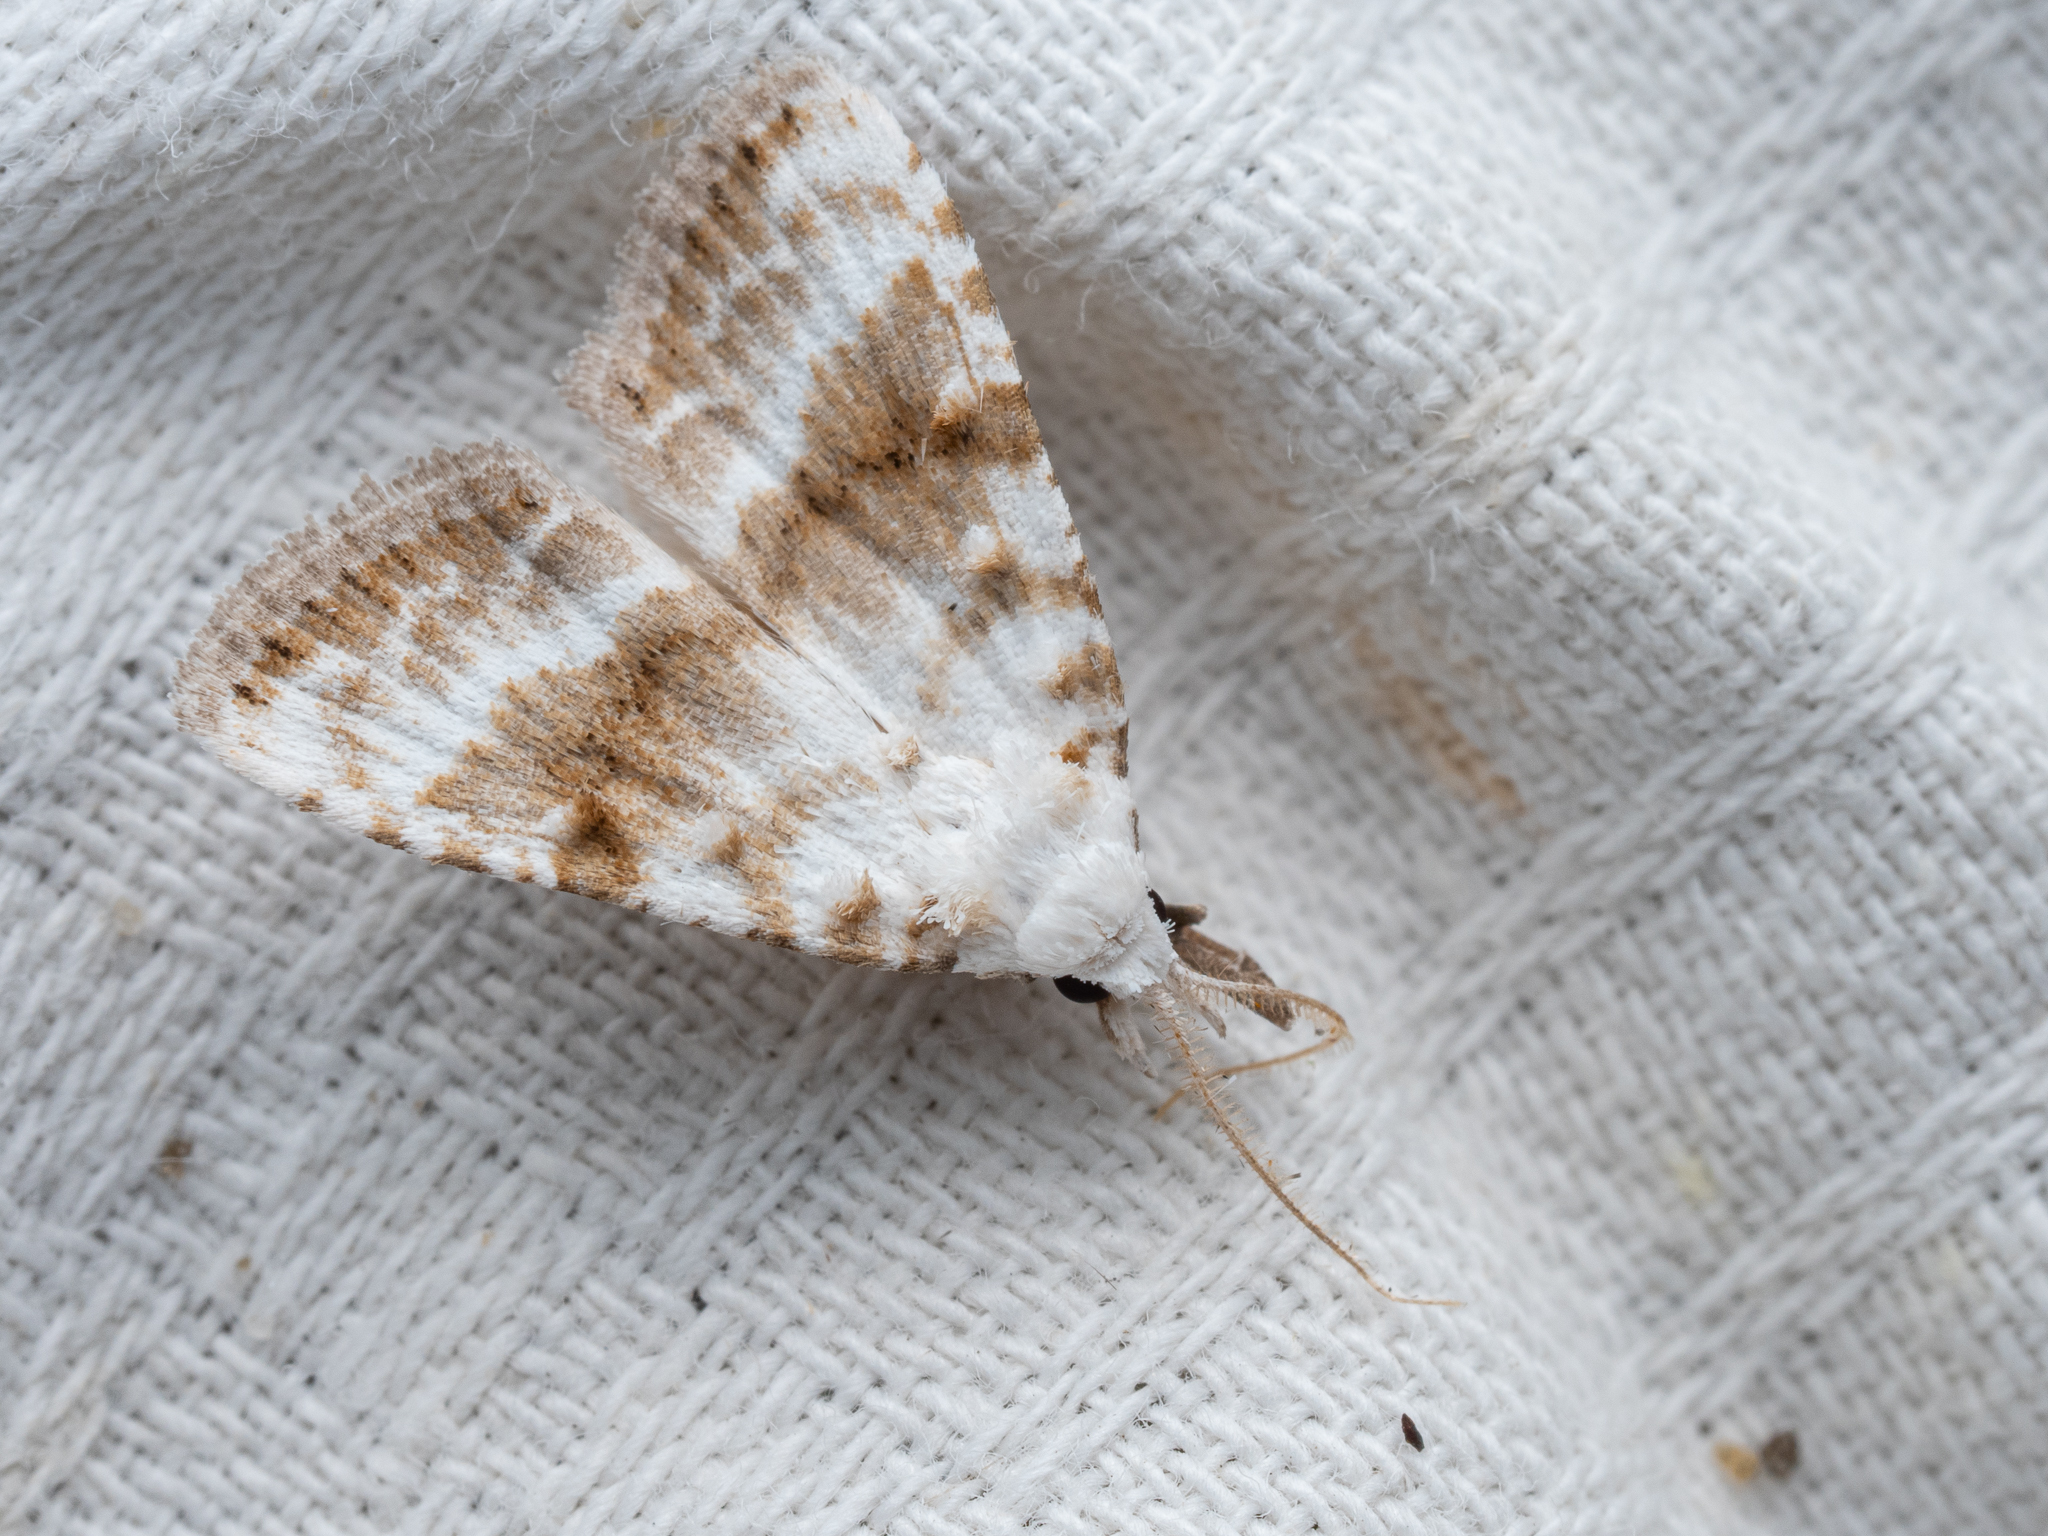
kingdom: Animalia
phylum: Arthropoda
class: Insecta
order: Lepidoptera
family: Nolidae
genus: Meganola
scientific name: Meganola albula
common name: Kent black arches
